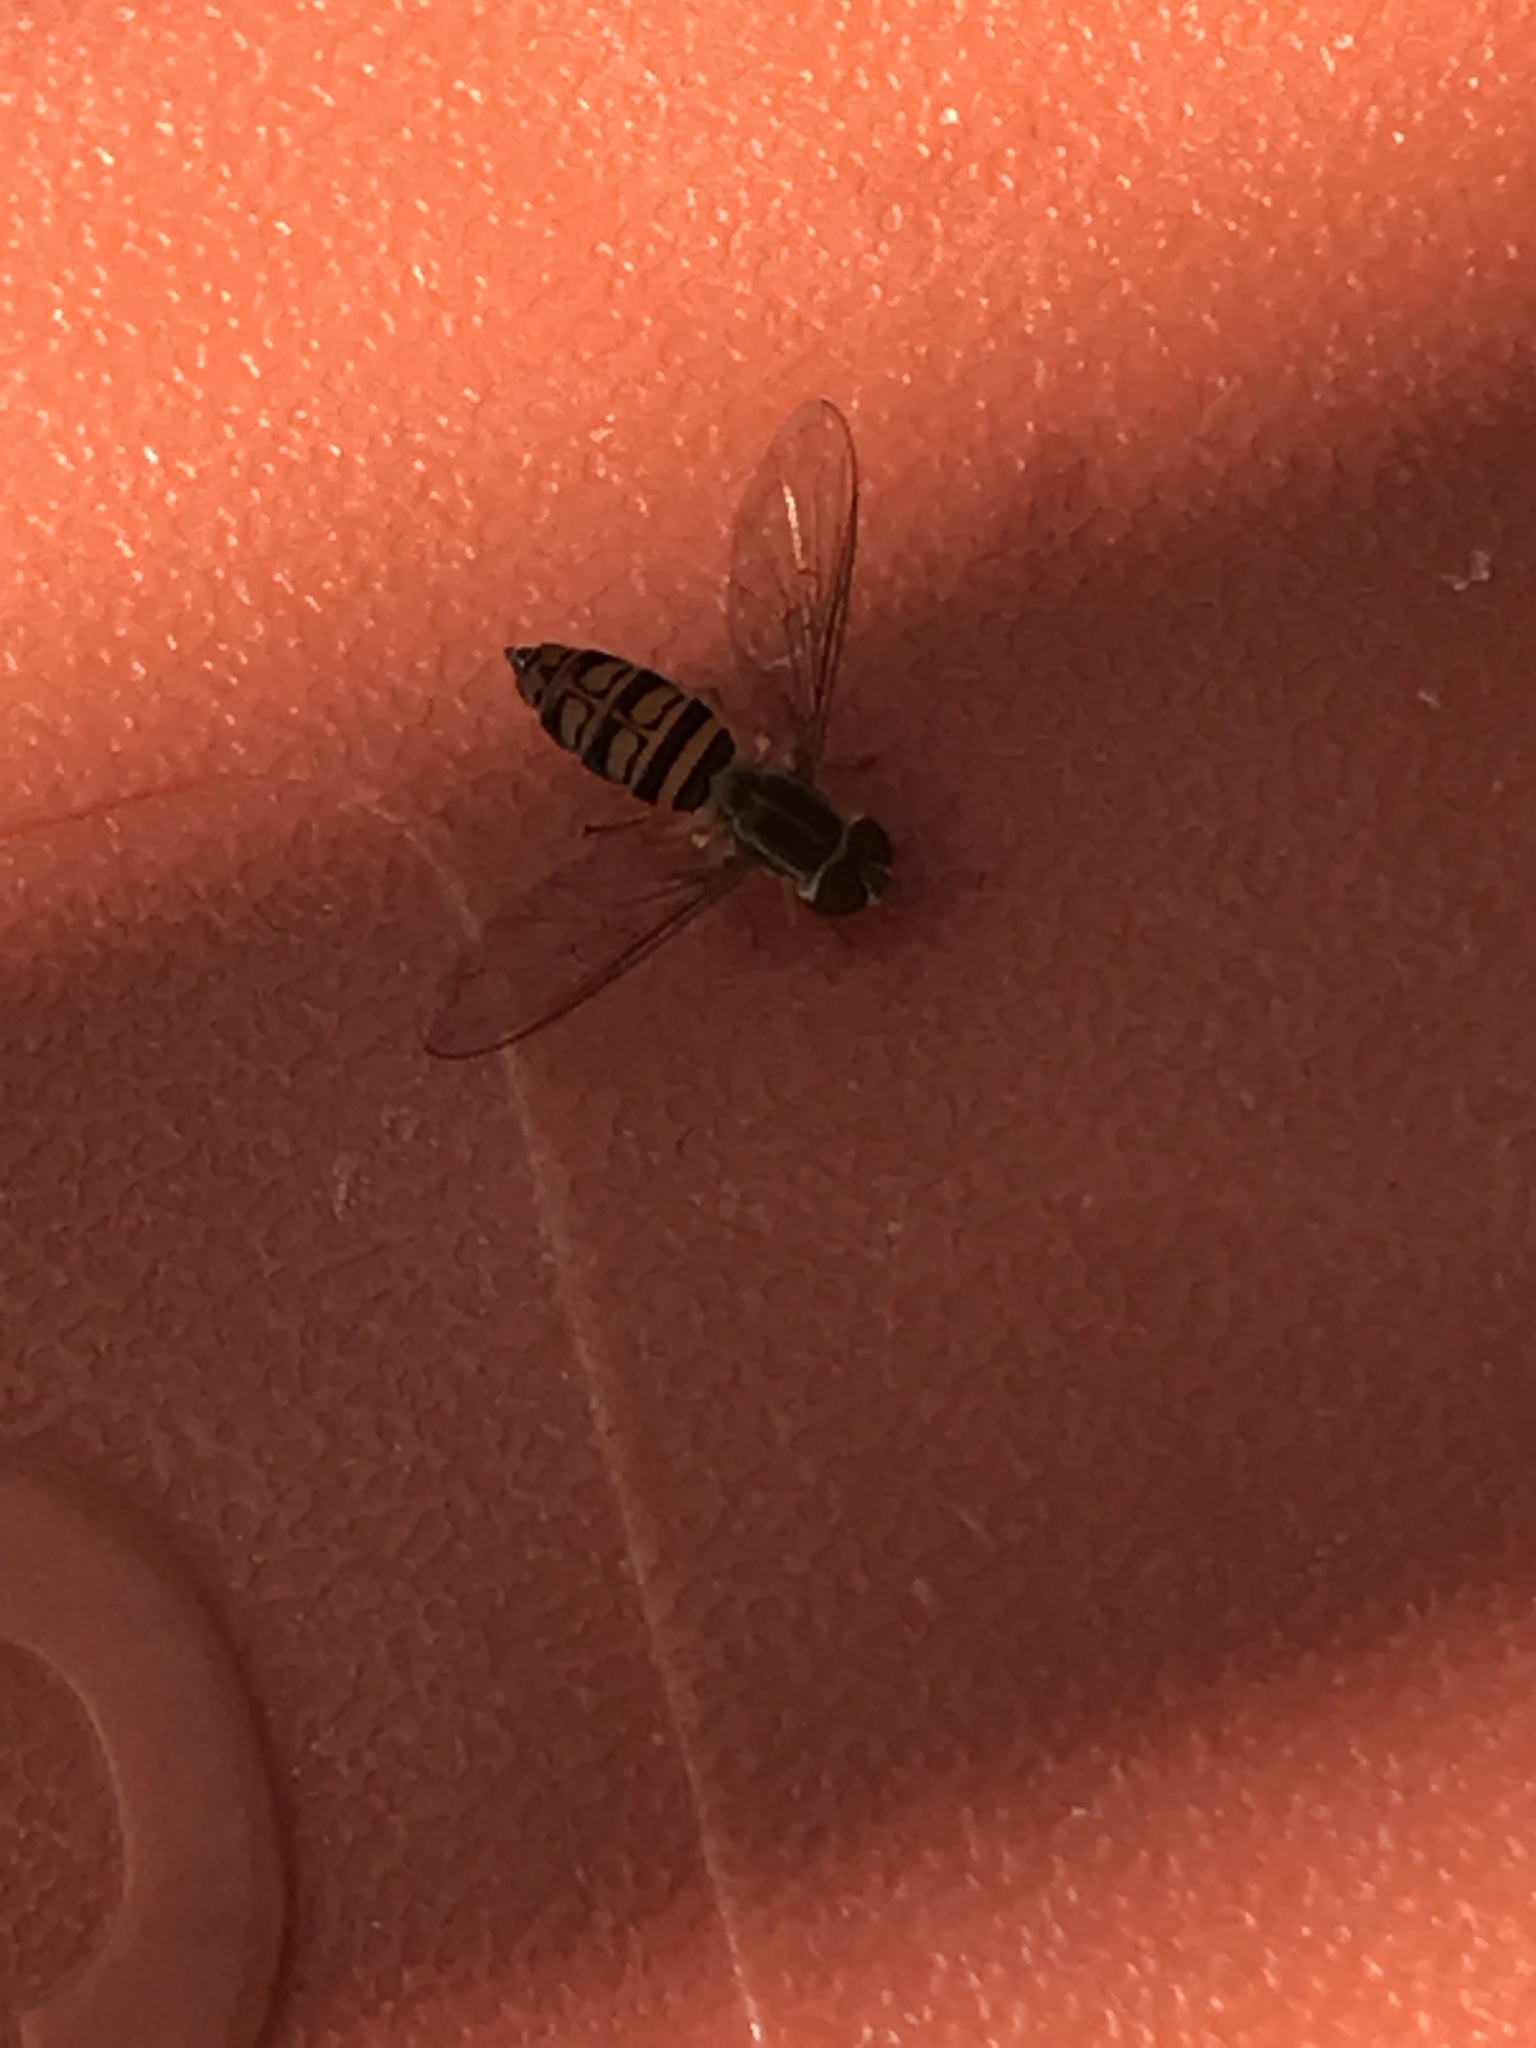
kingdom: Animalia
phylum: Arthropoda
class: Insecta
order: Diptera
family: Syrphidae
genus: Toxomerus
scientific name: Toxomerus politus
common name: Maize calligrapher
